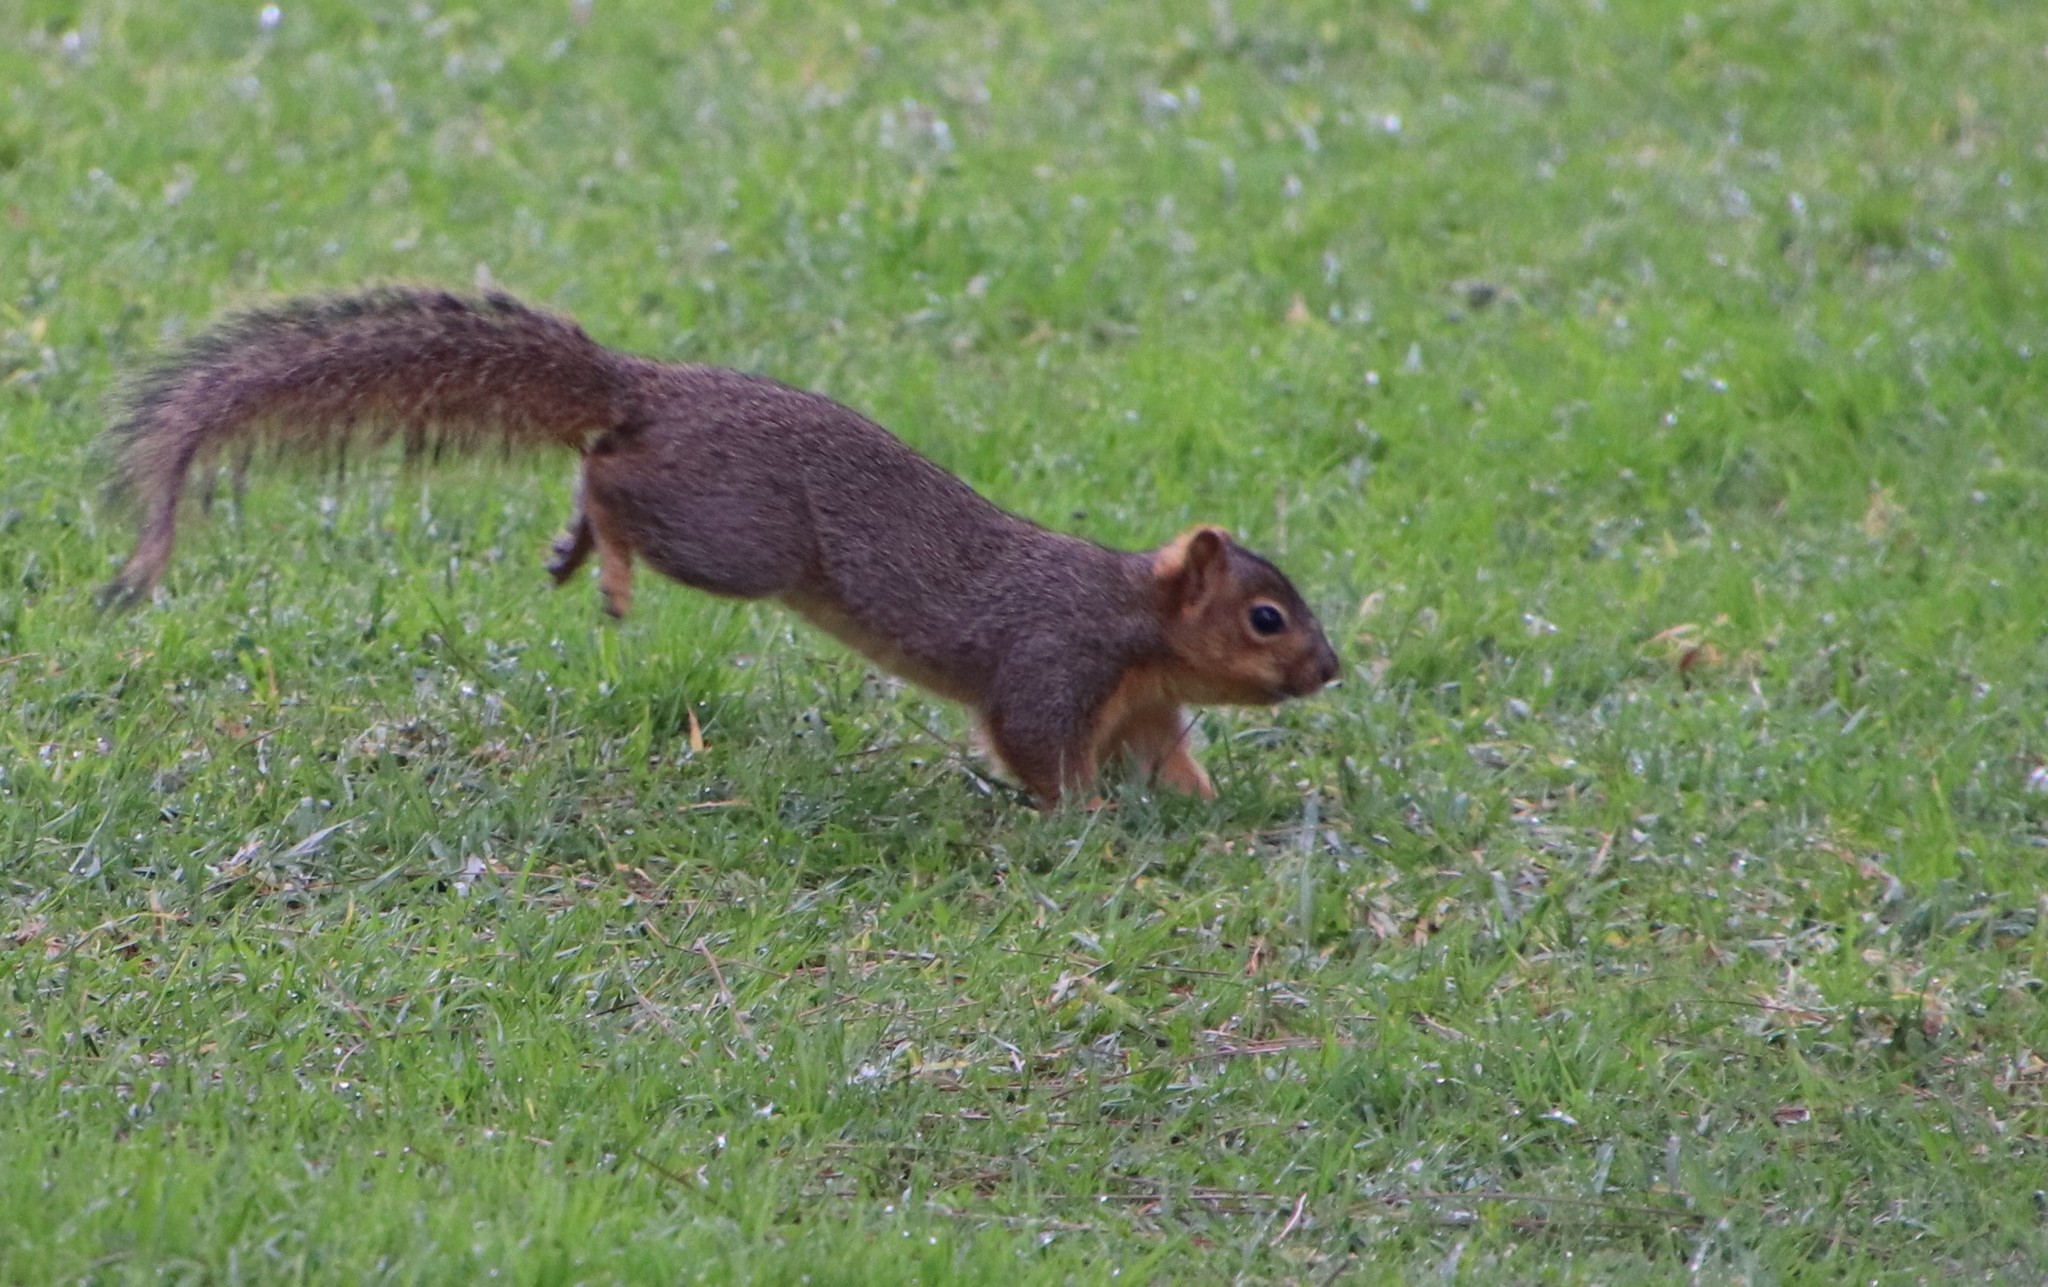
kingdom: Animalia
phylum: Chordata
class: Mammalia
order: Rodentia
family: Sciuridae
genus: Sciurus
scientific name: Sciurus niger
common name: Fox squirrel
